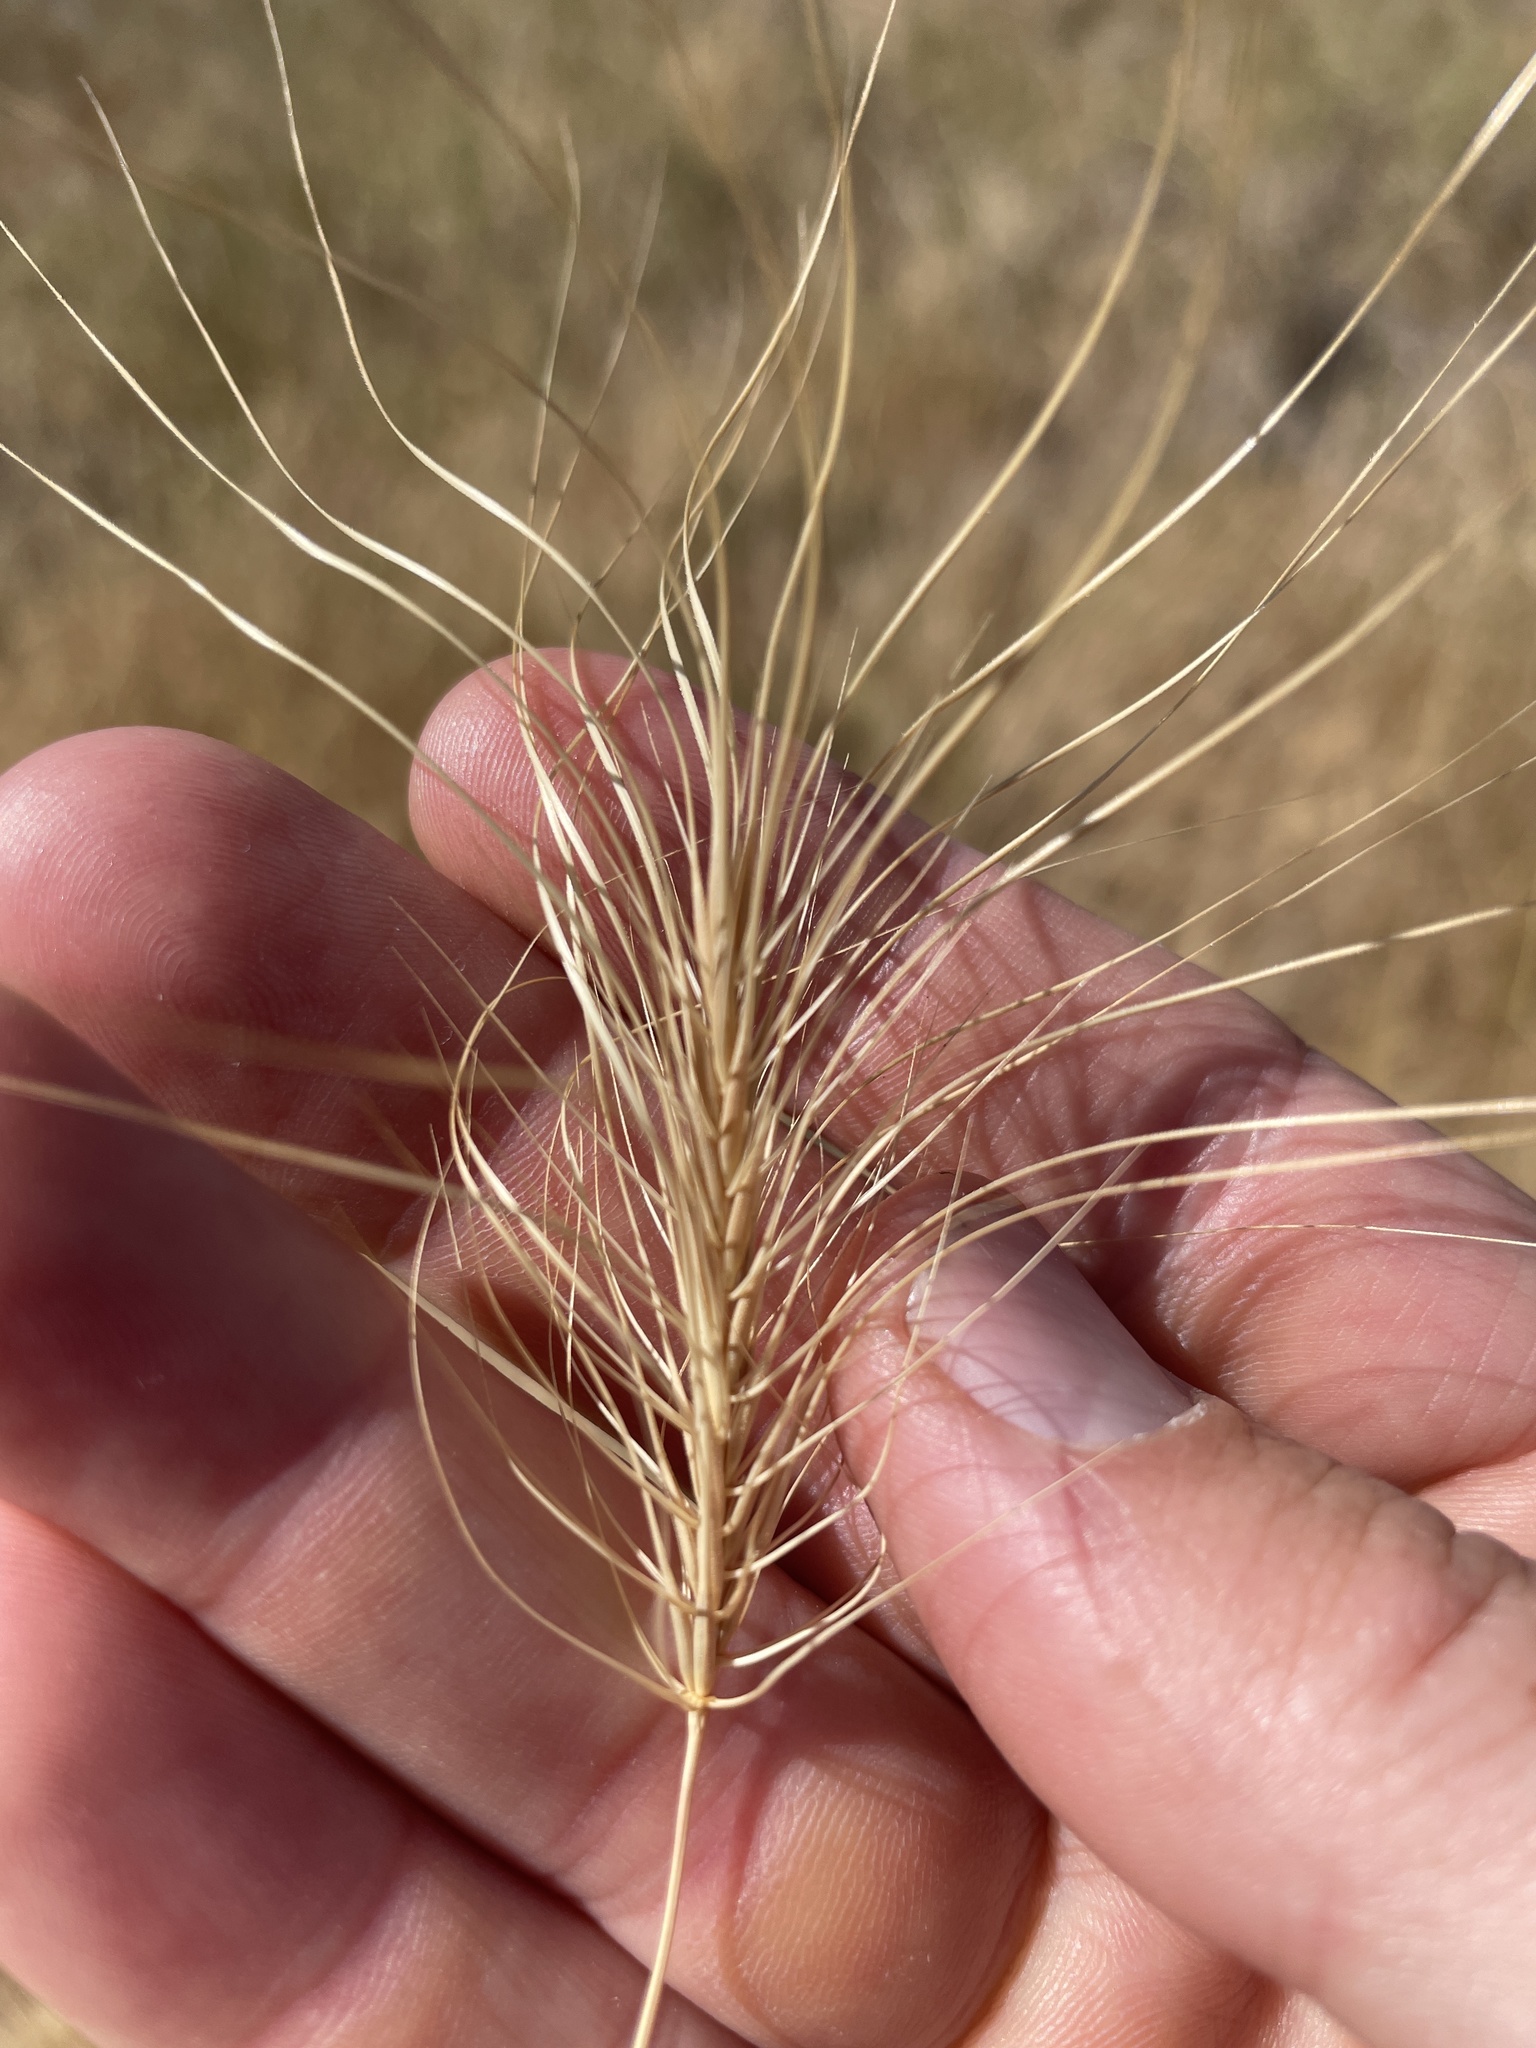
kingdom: Plantae
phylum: Tracheophyta
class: Liliopsida
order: Poales
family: Poaceae
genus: Taeniatherum
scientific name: Taeniatherum caput-medusae
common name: Medusahead
